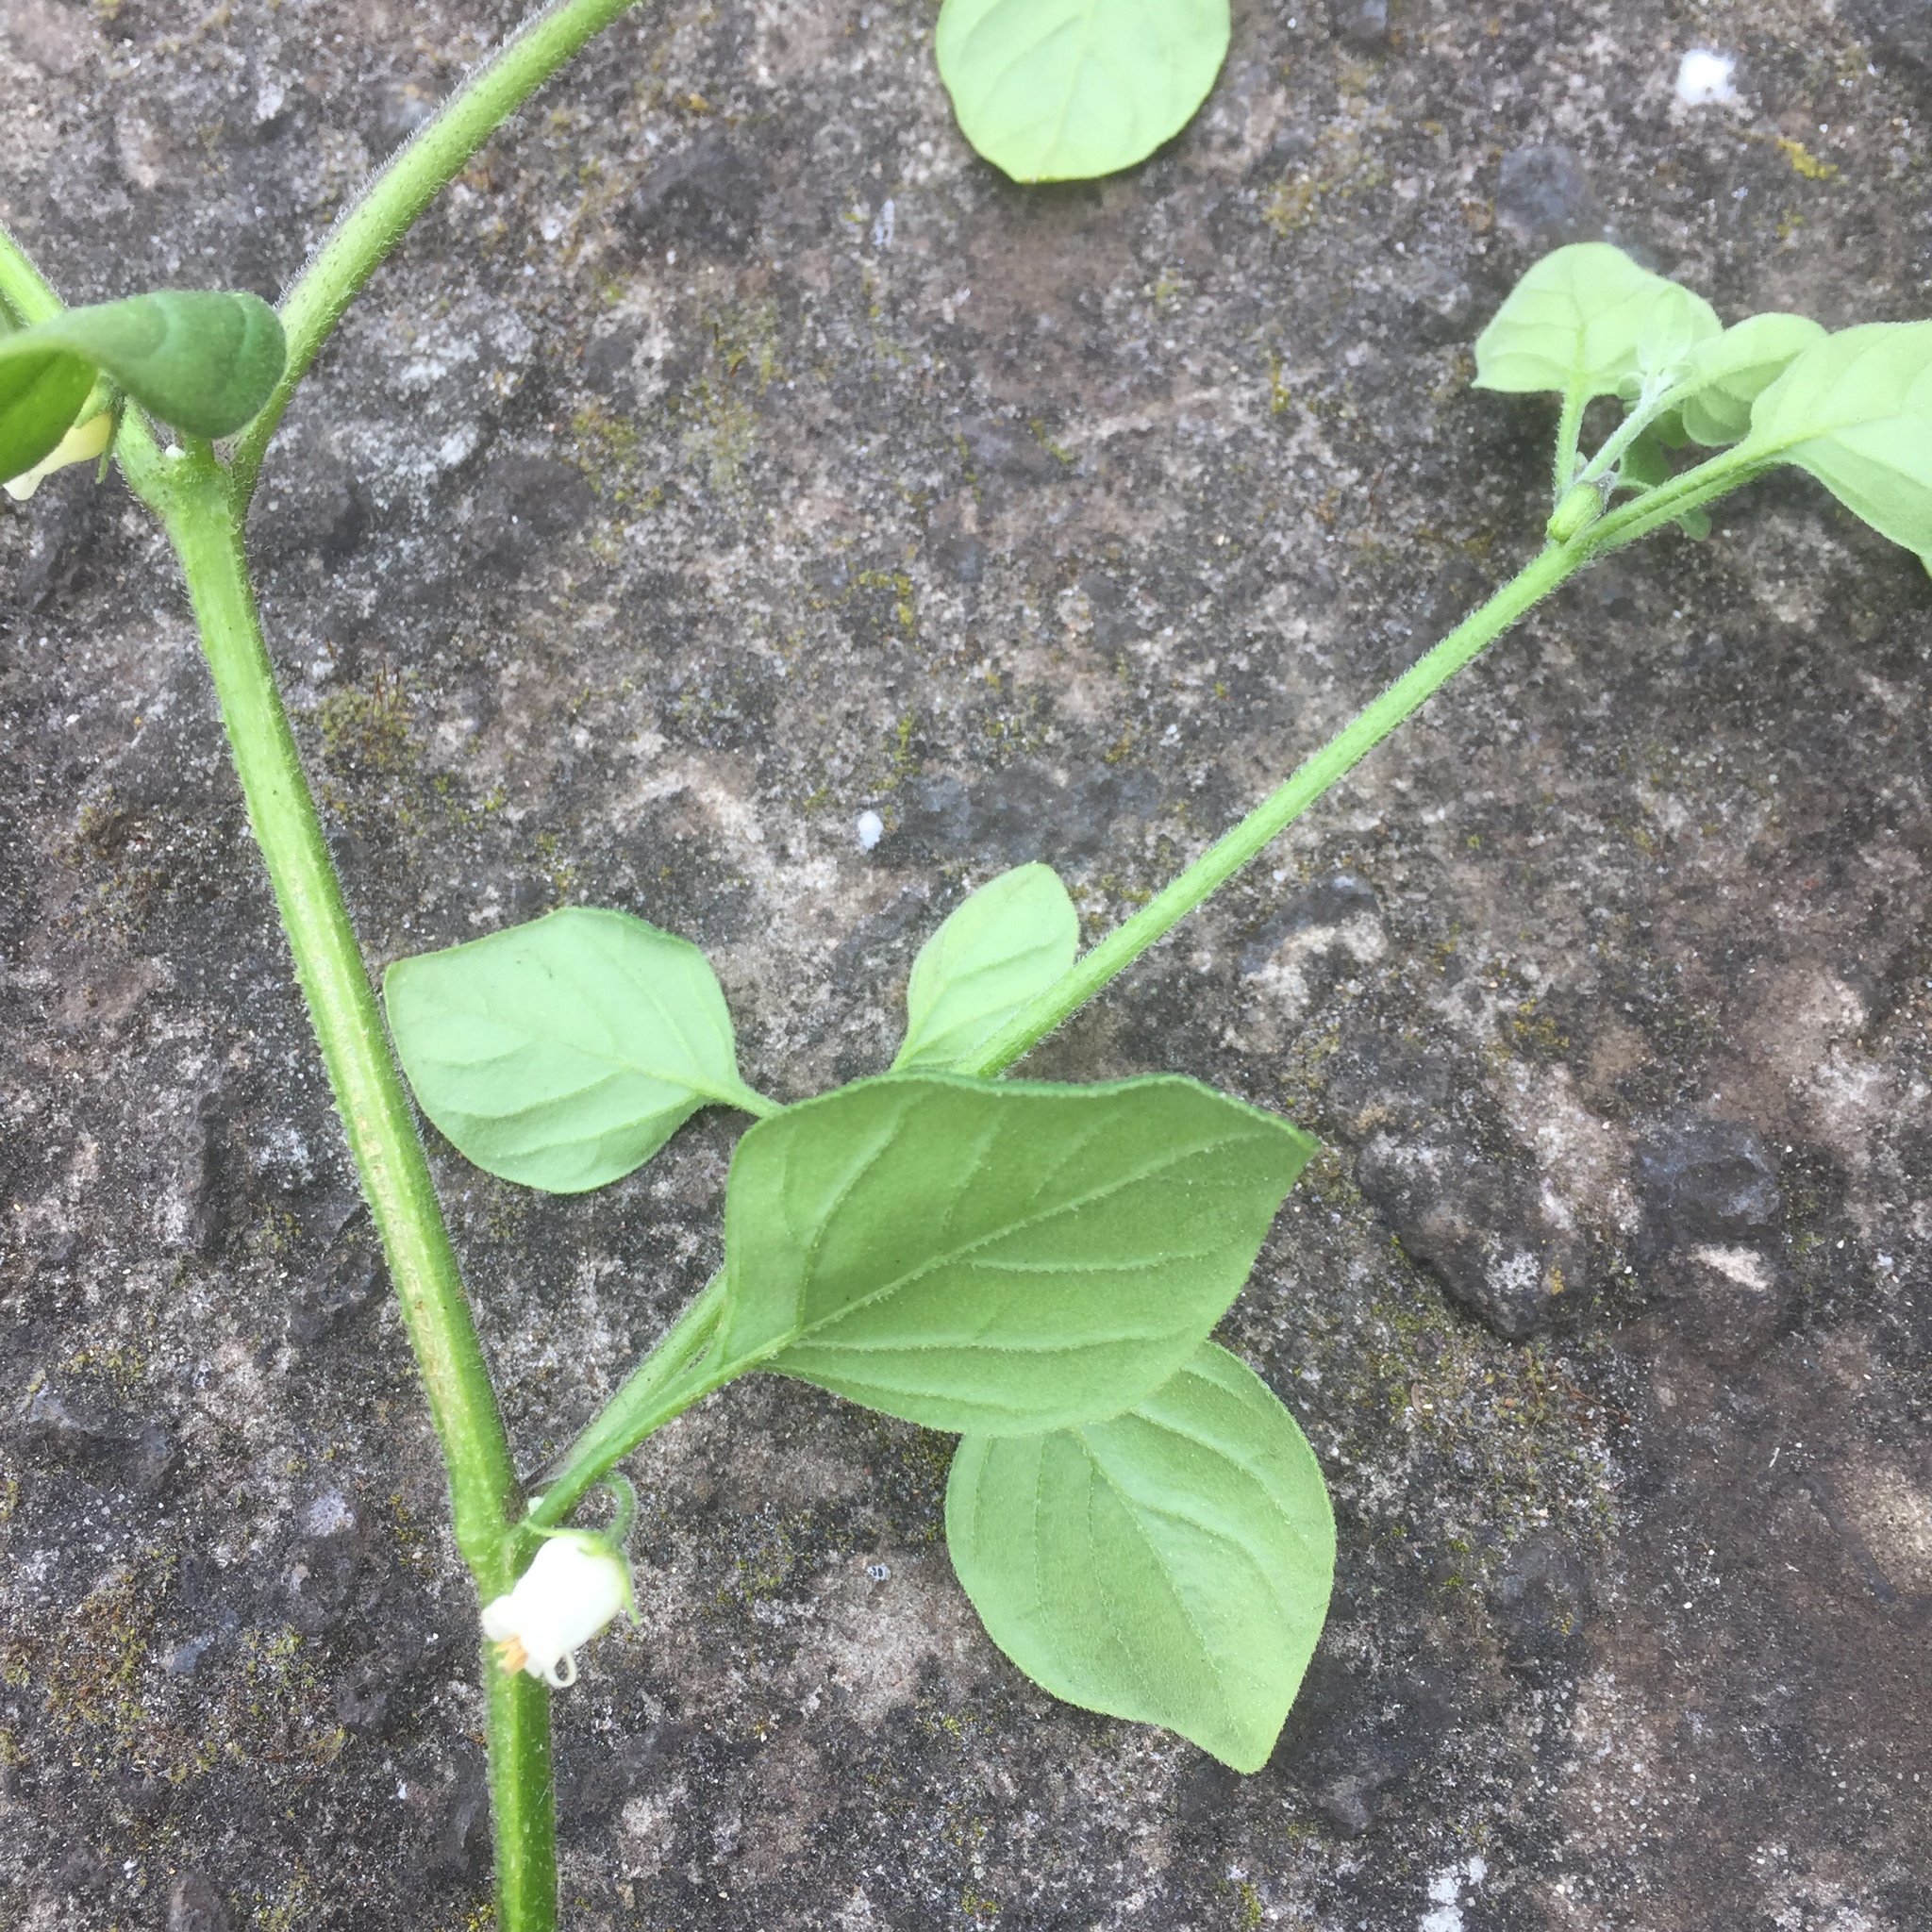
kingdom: Plantae
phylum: Tracheophyta
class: Magnoliopsida
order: Solanales
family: Solanaceae
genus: Salpichroa
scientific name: Salpichroa origanifolia
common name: Lily-of-the-valley-vine
